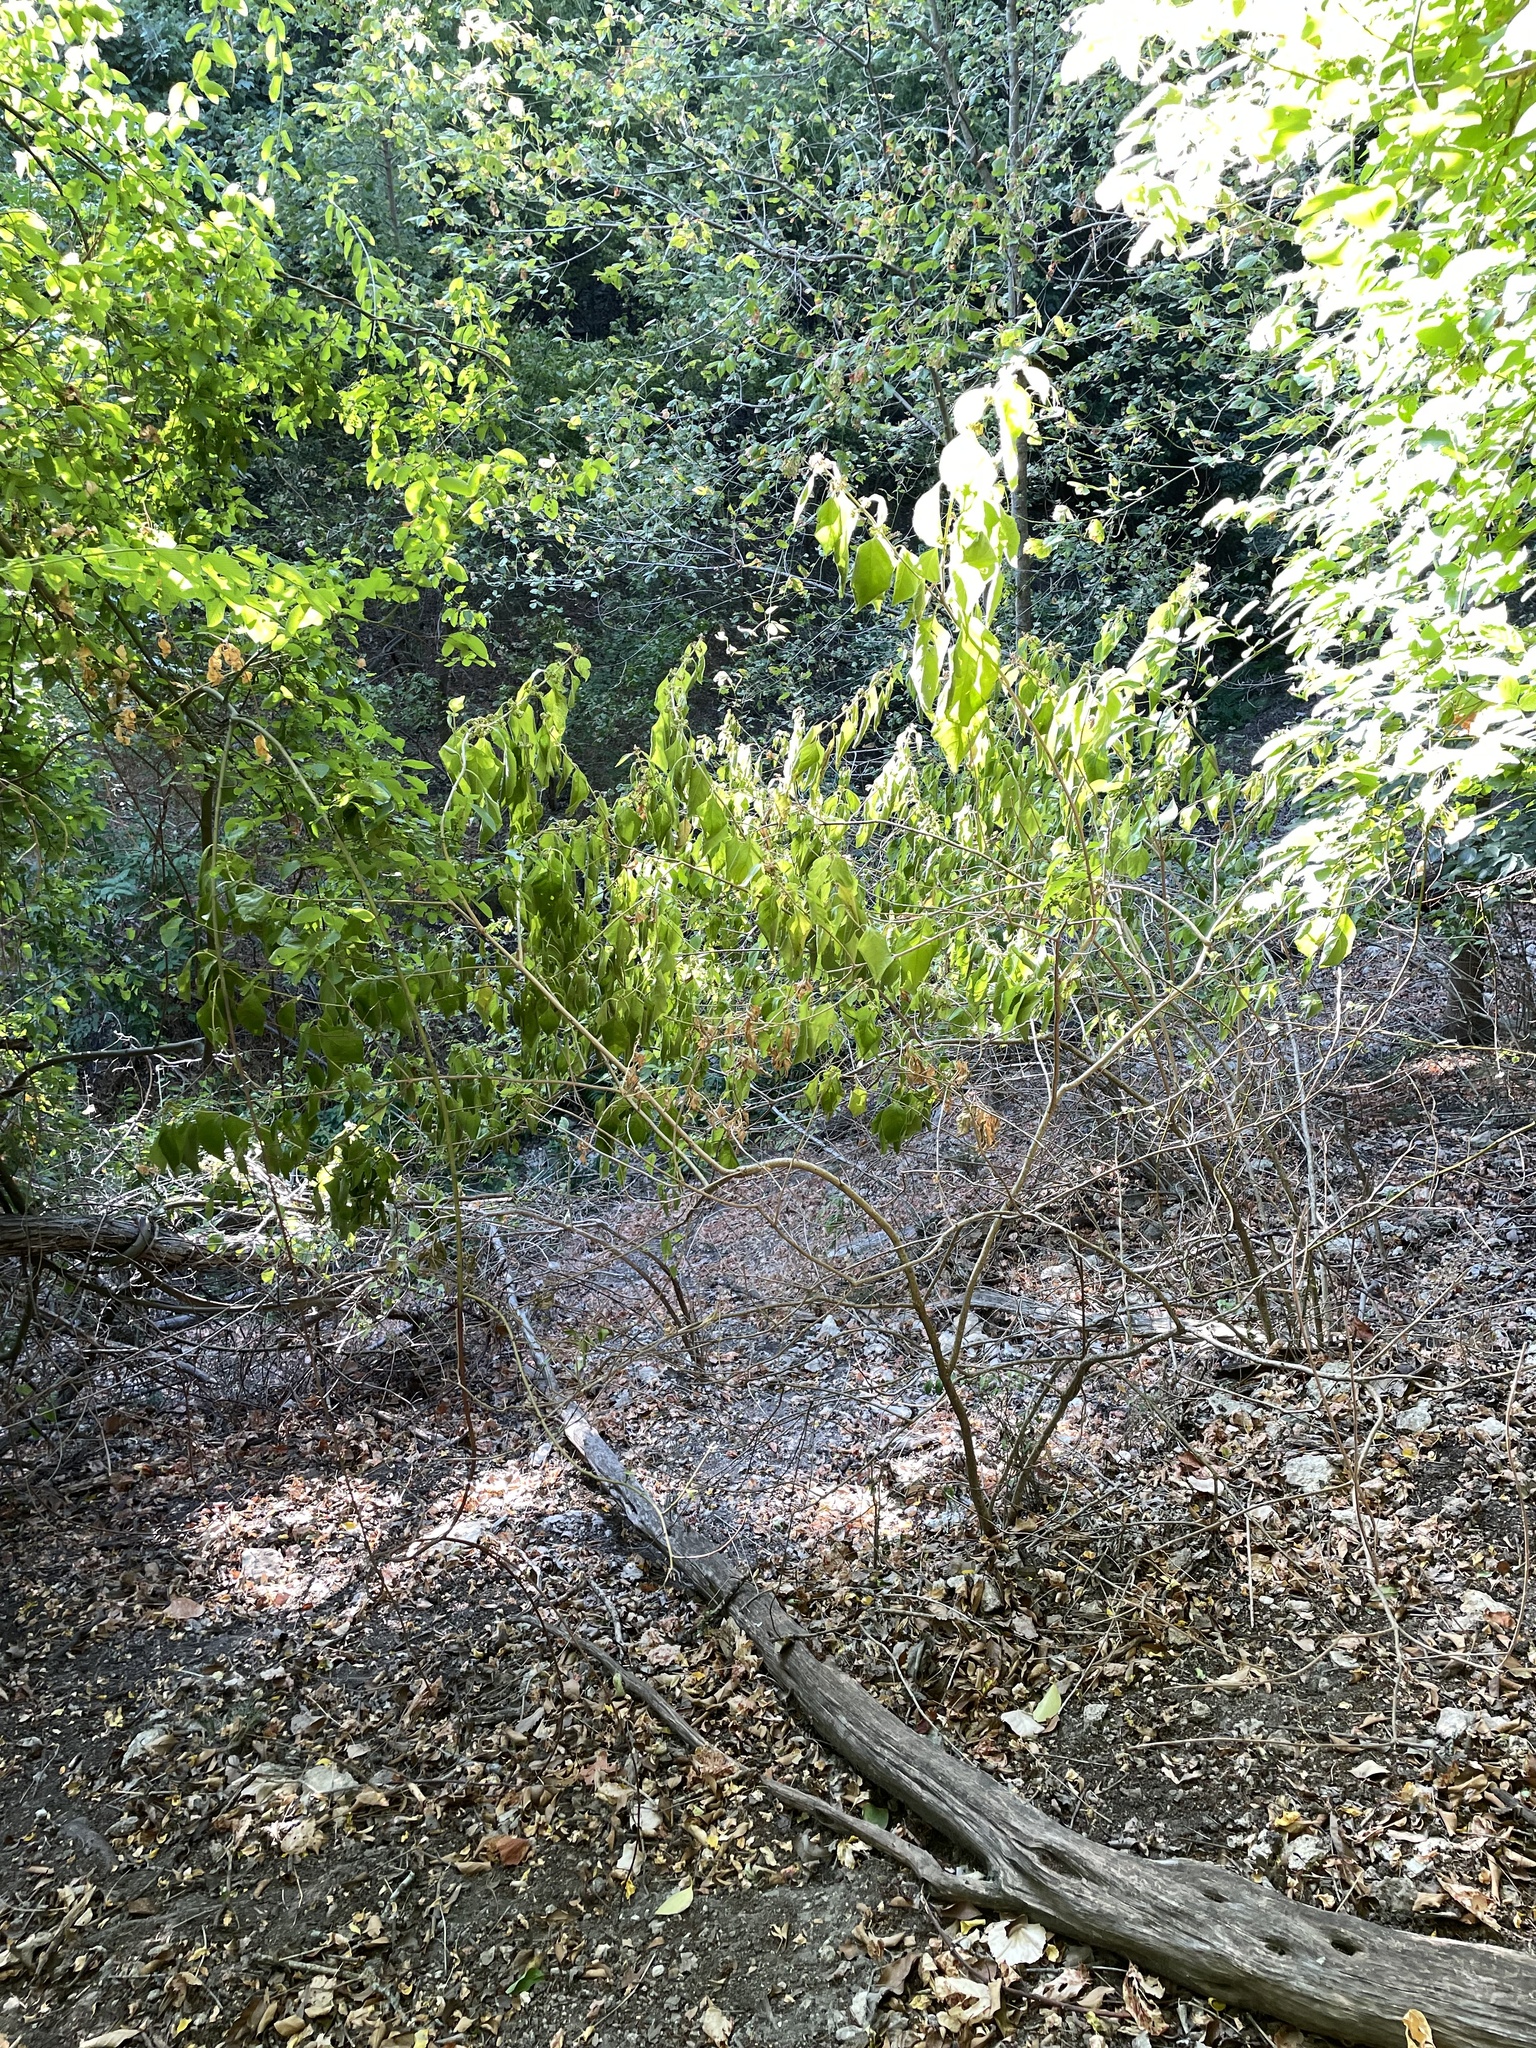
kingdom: Plantae
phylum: Tracheophyta
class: Magnoliopsida
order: Lamiales
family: Lamiaceae
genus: Callicarpa
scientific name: Callicarpa americana
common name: American beautyberry
